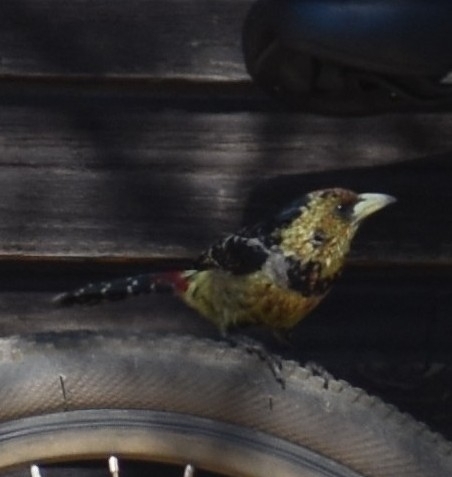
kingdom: Animalia
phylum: Chordata
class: Aves
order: Piciformes
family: Lybiidae
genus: Trachyphonus
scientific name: Trachyphonus vaillantii
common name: Crested barbet
